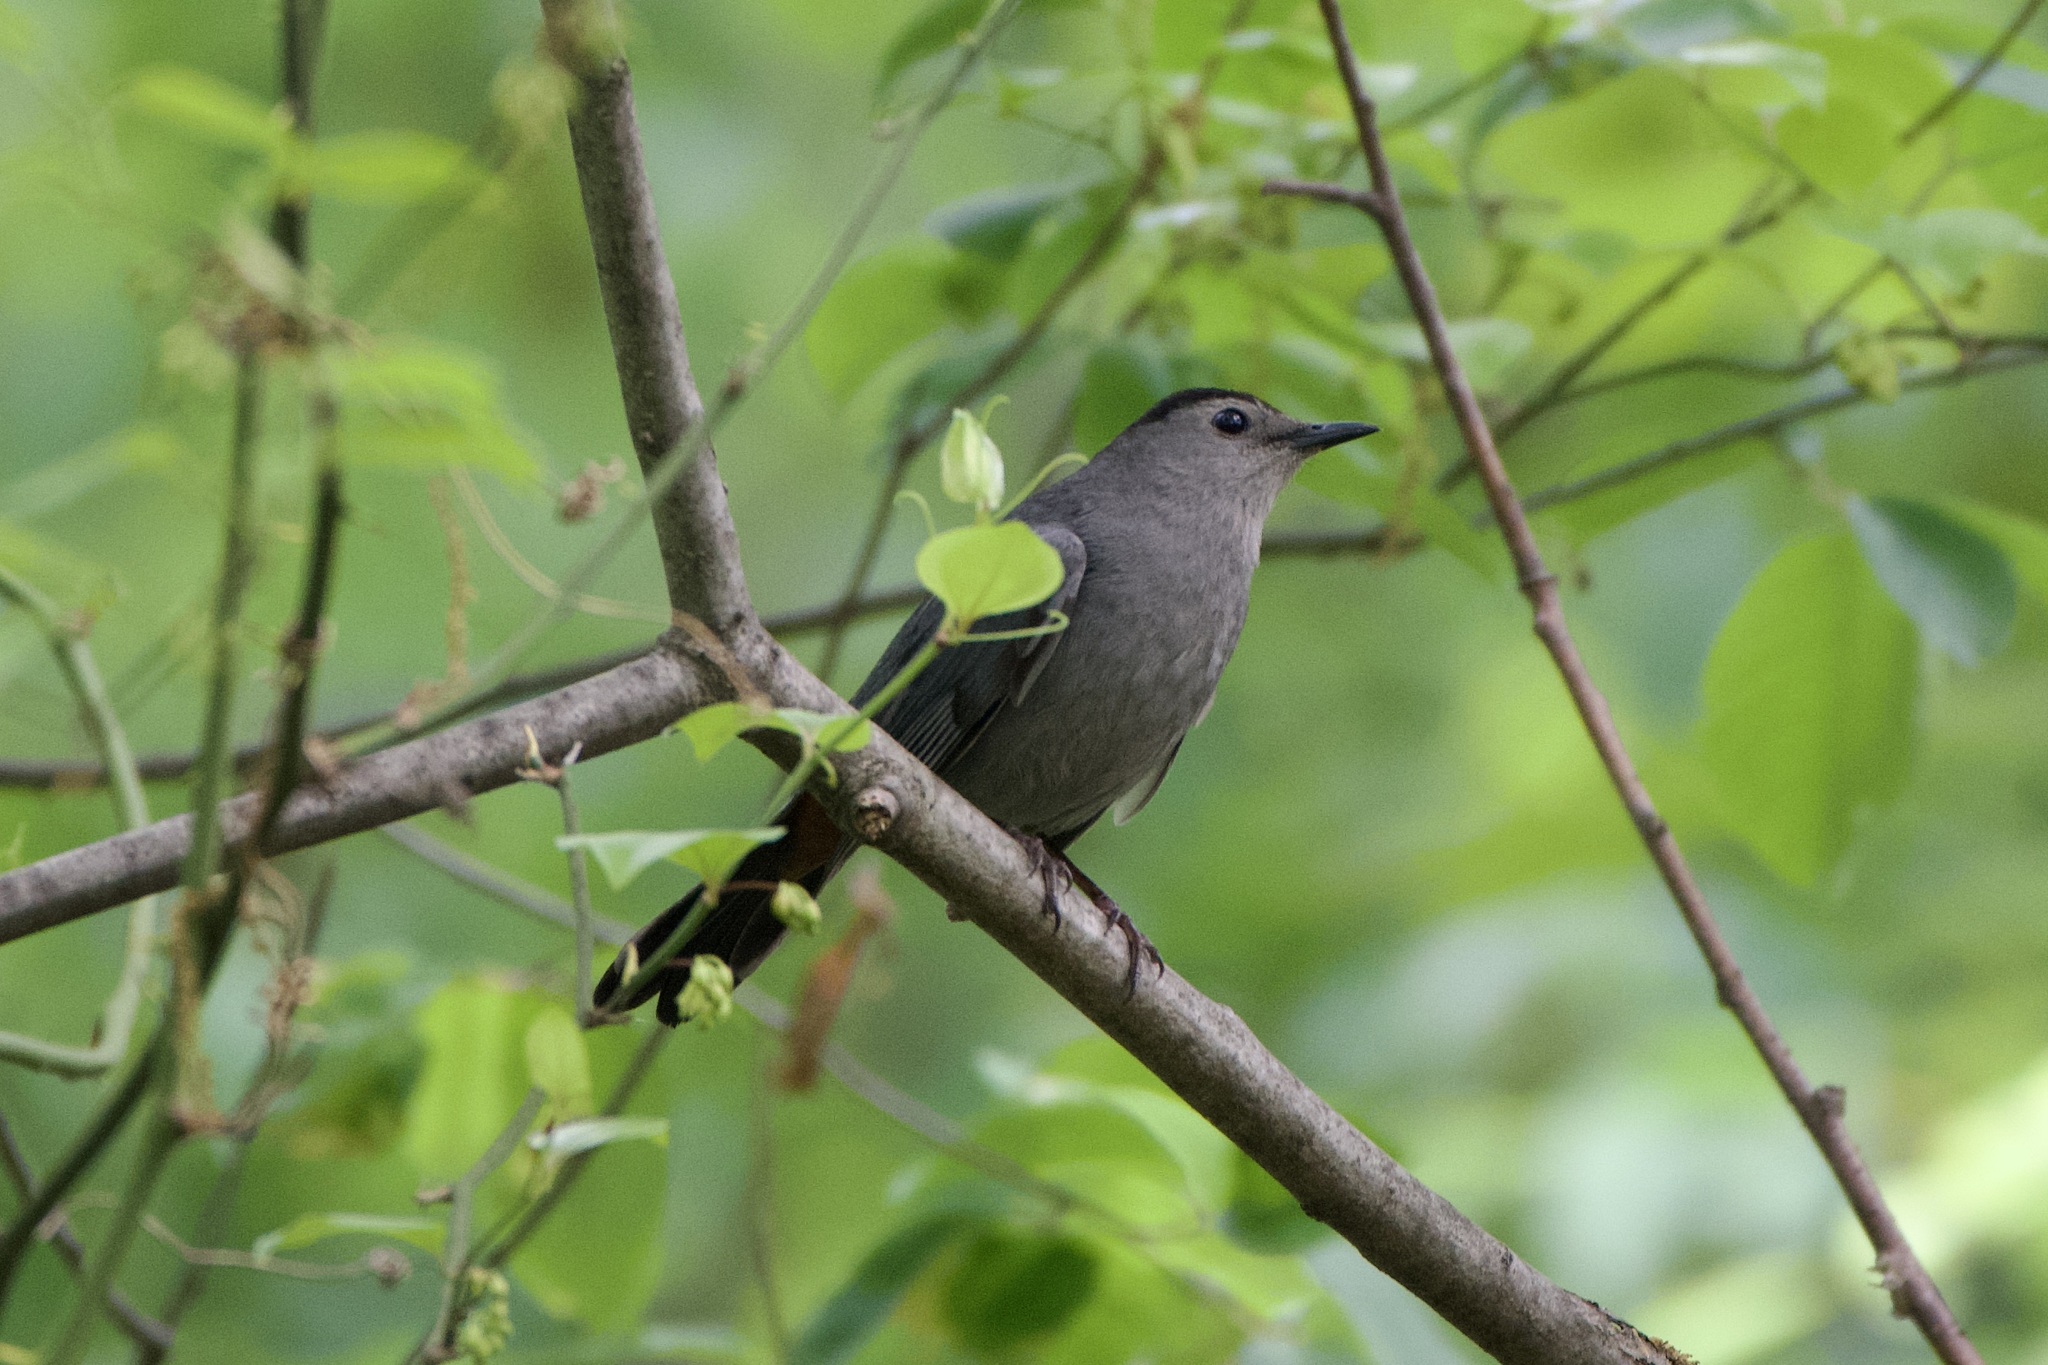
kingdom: Animalia
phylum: Chordata
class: Aves
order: Passeriformes
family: Mimidae
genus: Dumetella
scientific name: Dumetella carolinensis
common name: Gray catbird
